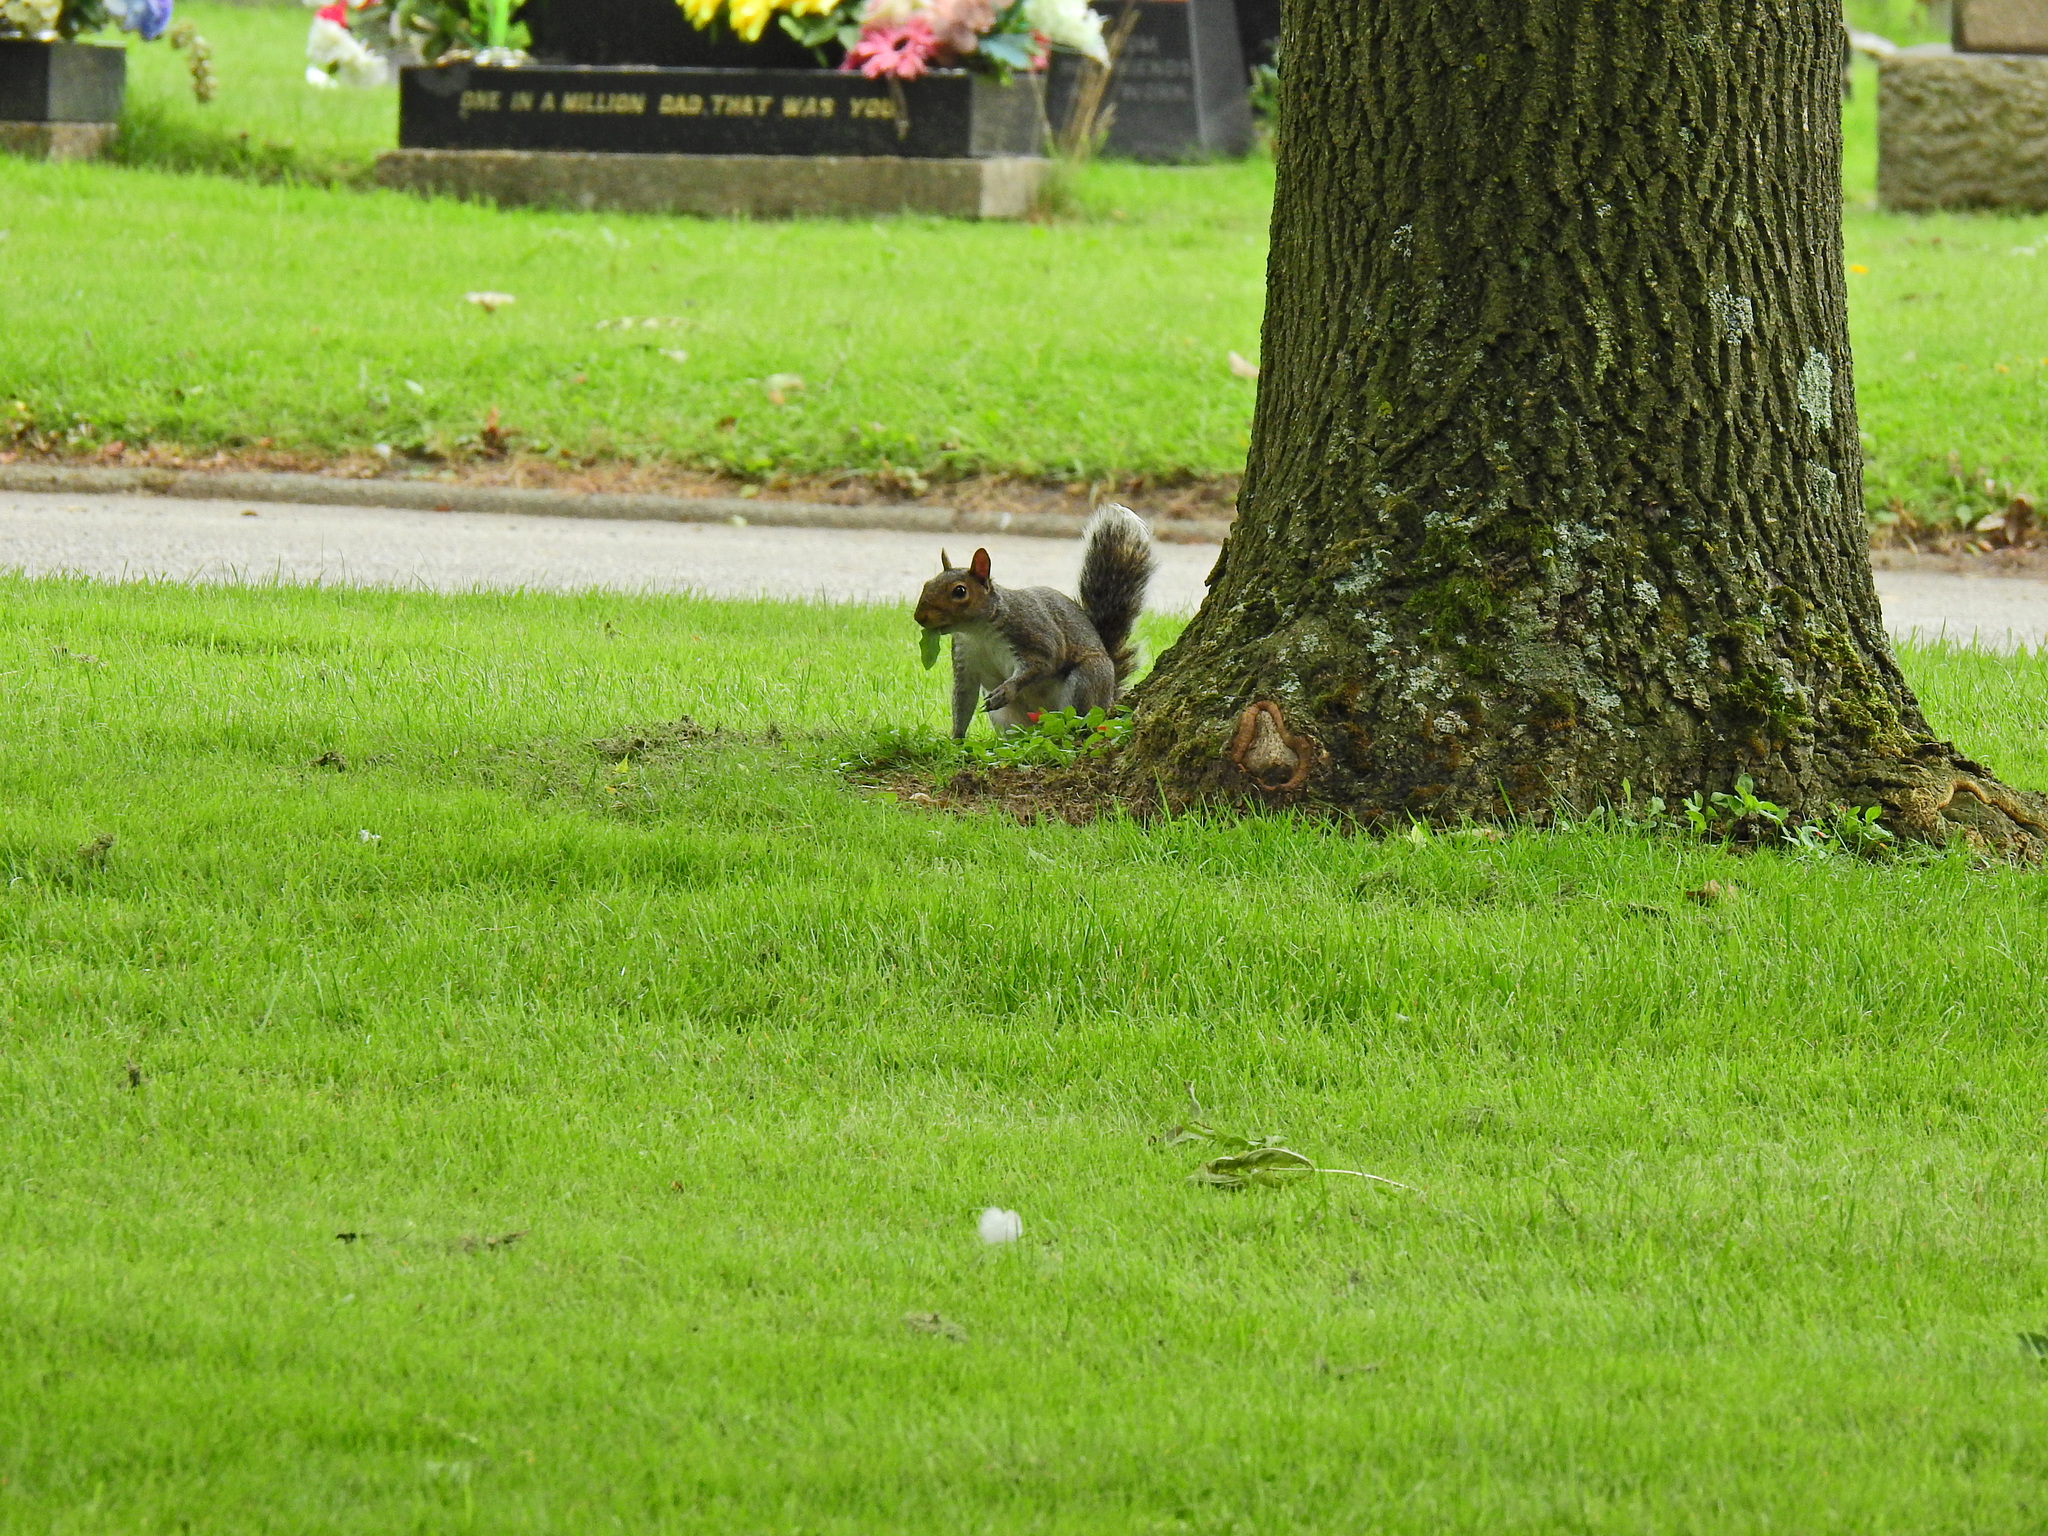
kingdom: Animalia
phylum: Chordata
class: Mammalia
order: Rodentia
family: Sciuridae
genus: Sciurus
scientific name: Sciurus carolinensis
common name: Eastern gray squirrel
